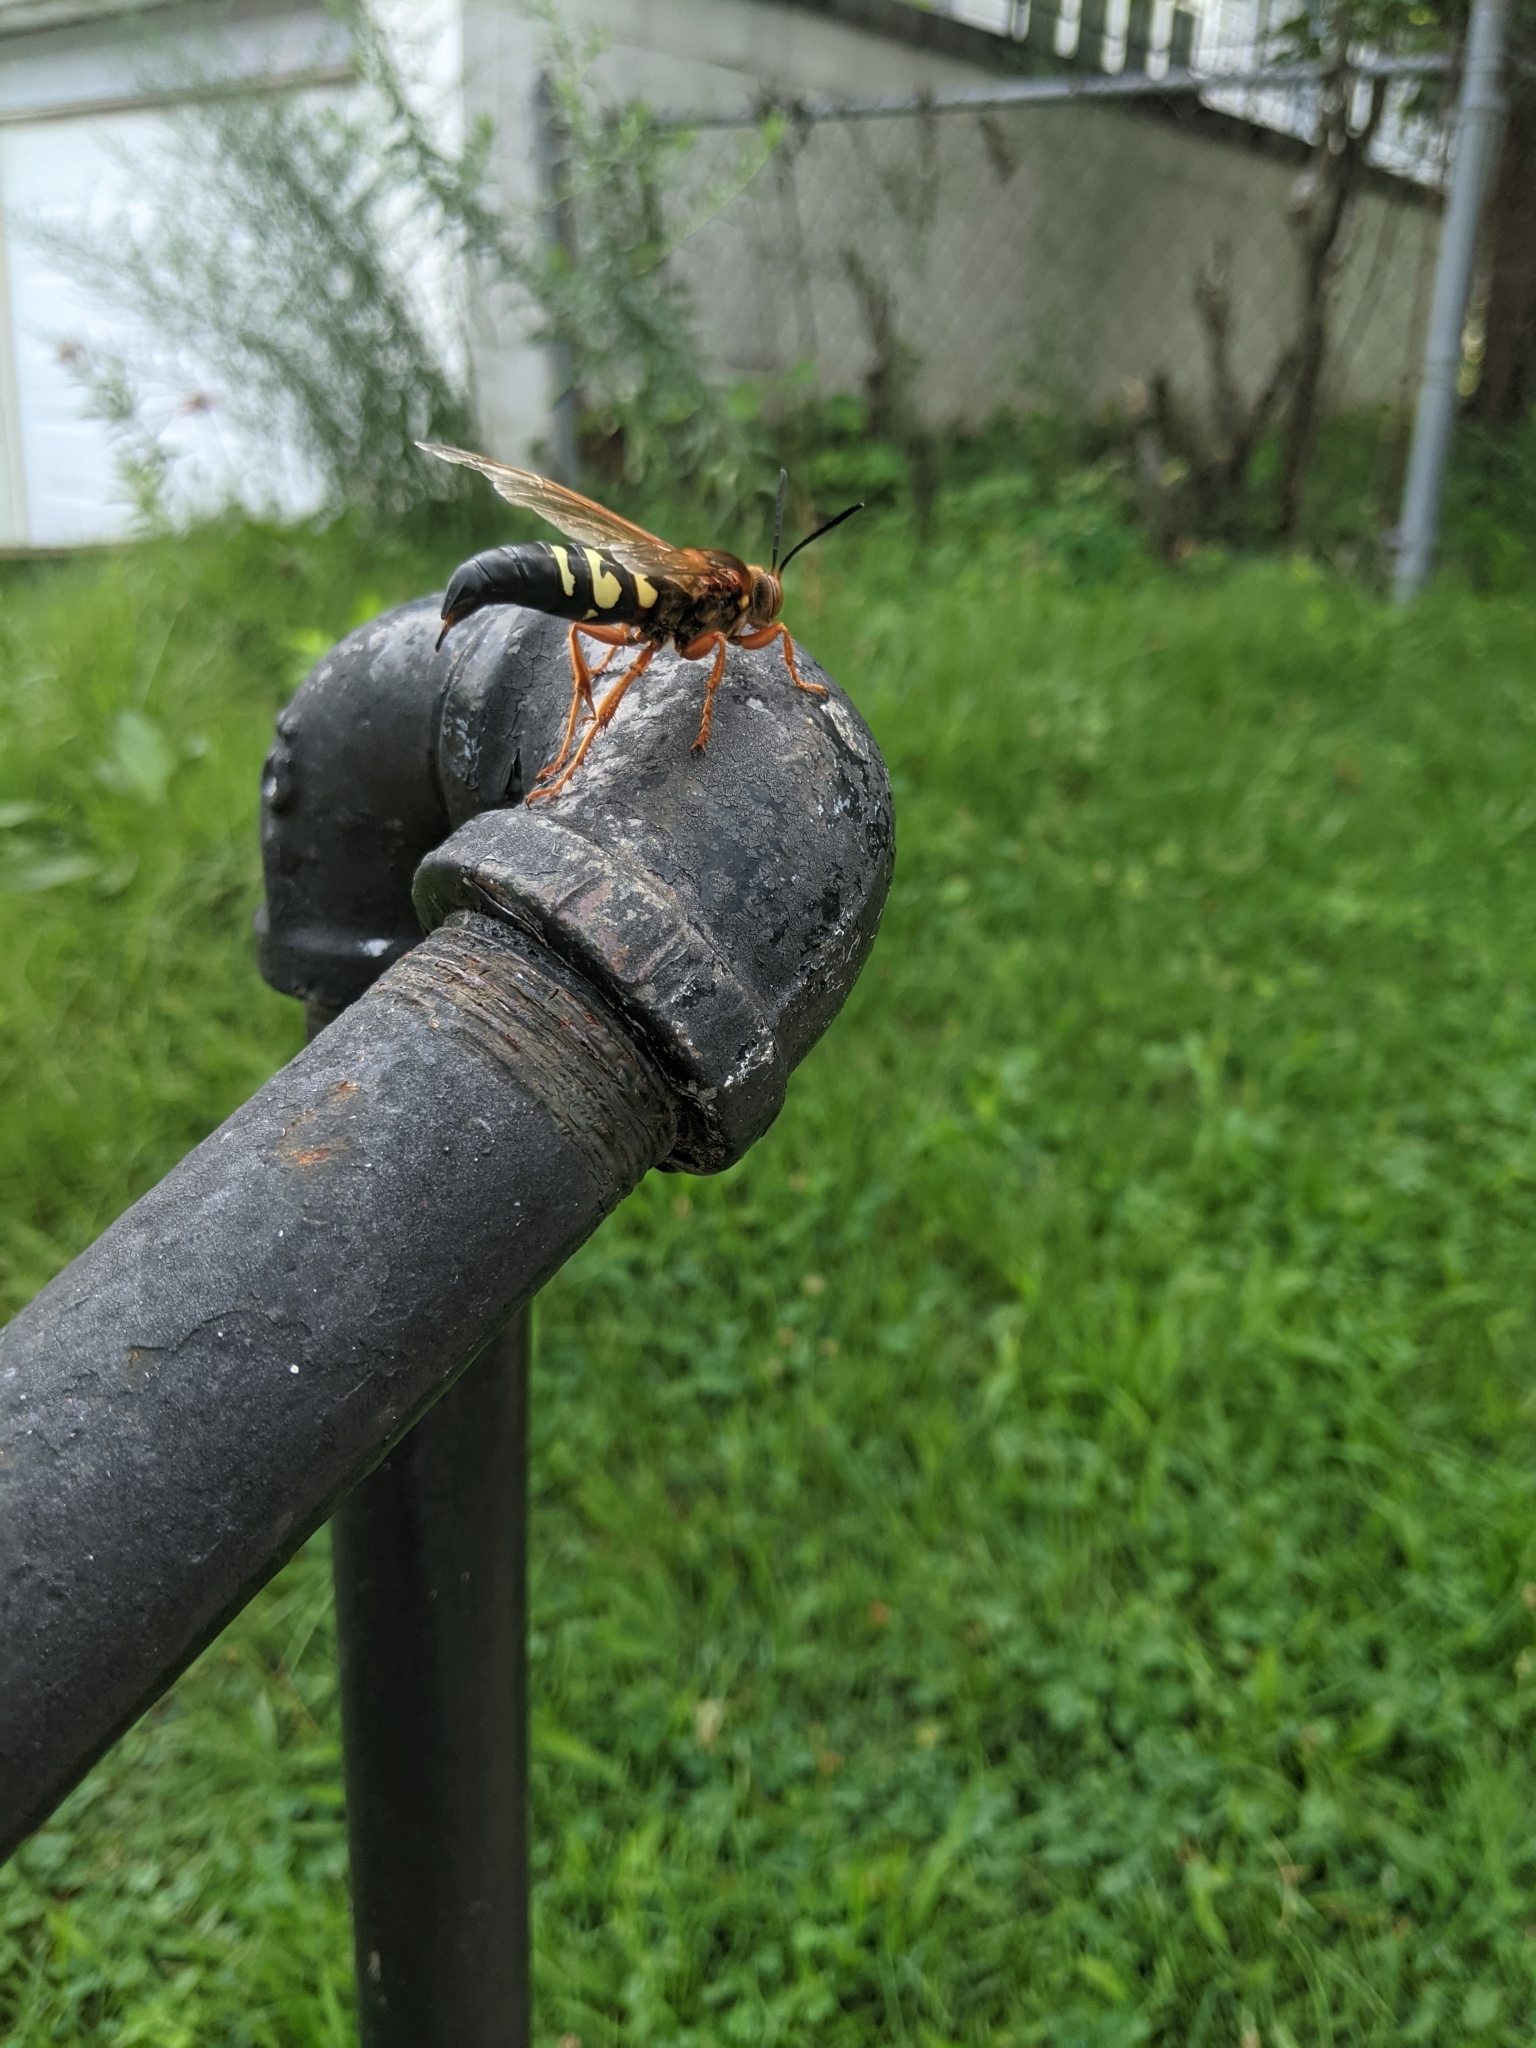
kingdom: Animalia
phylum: Arthropoda
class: Insecta
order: Hymenoptera
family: Crabronidae
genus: Sphecius
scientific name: Sphecius speciosus
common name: Cicada killer
